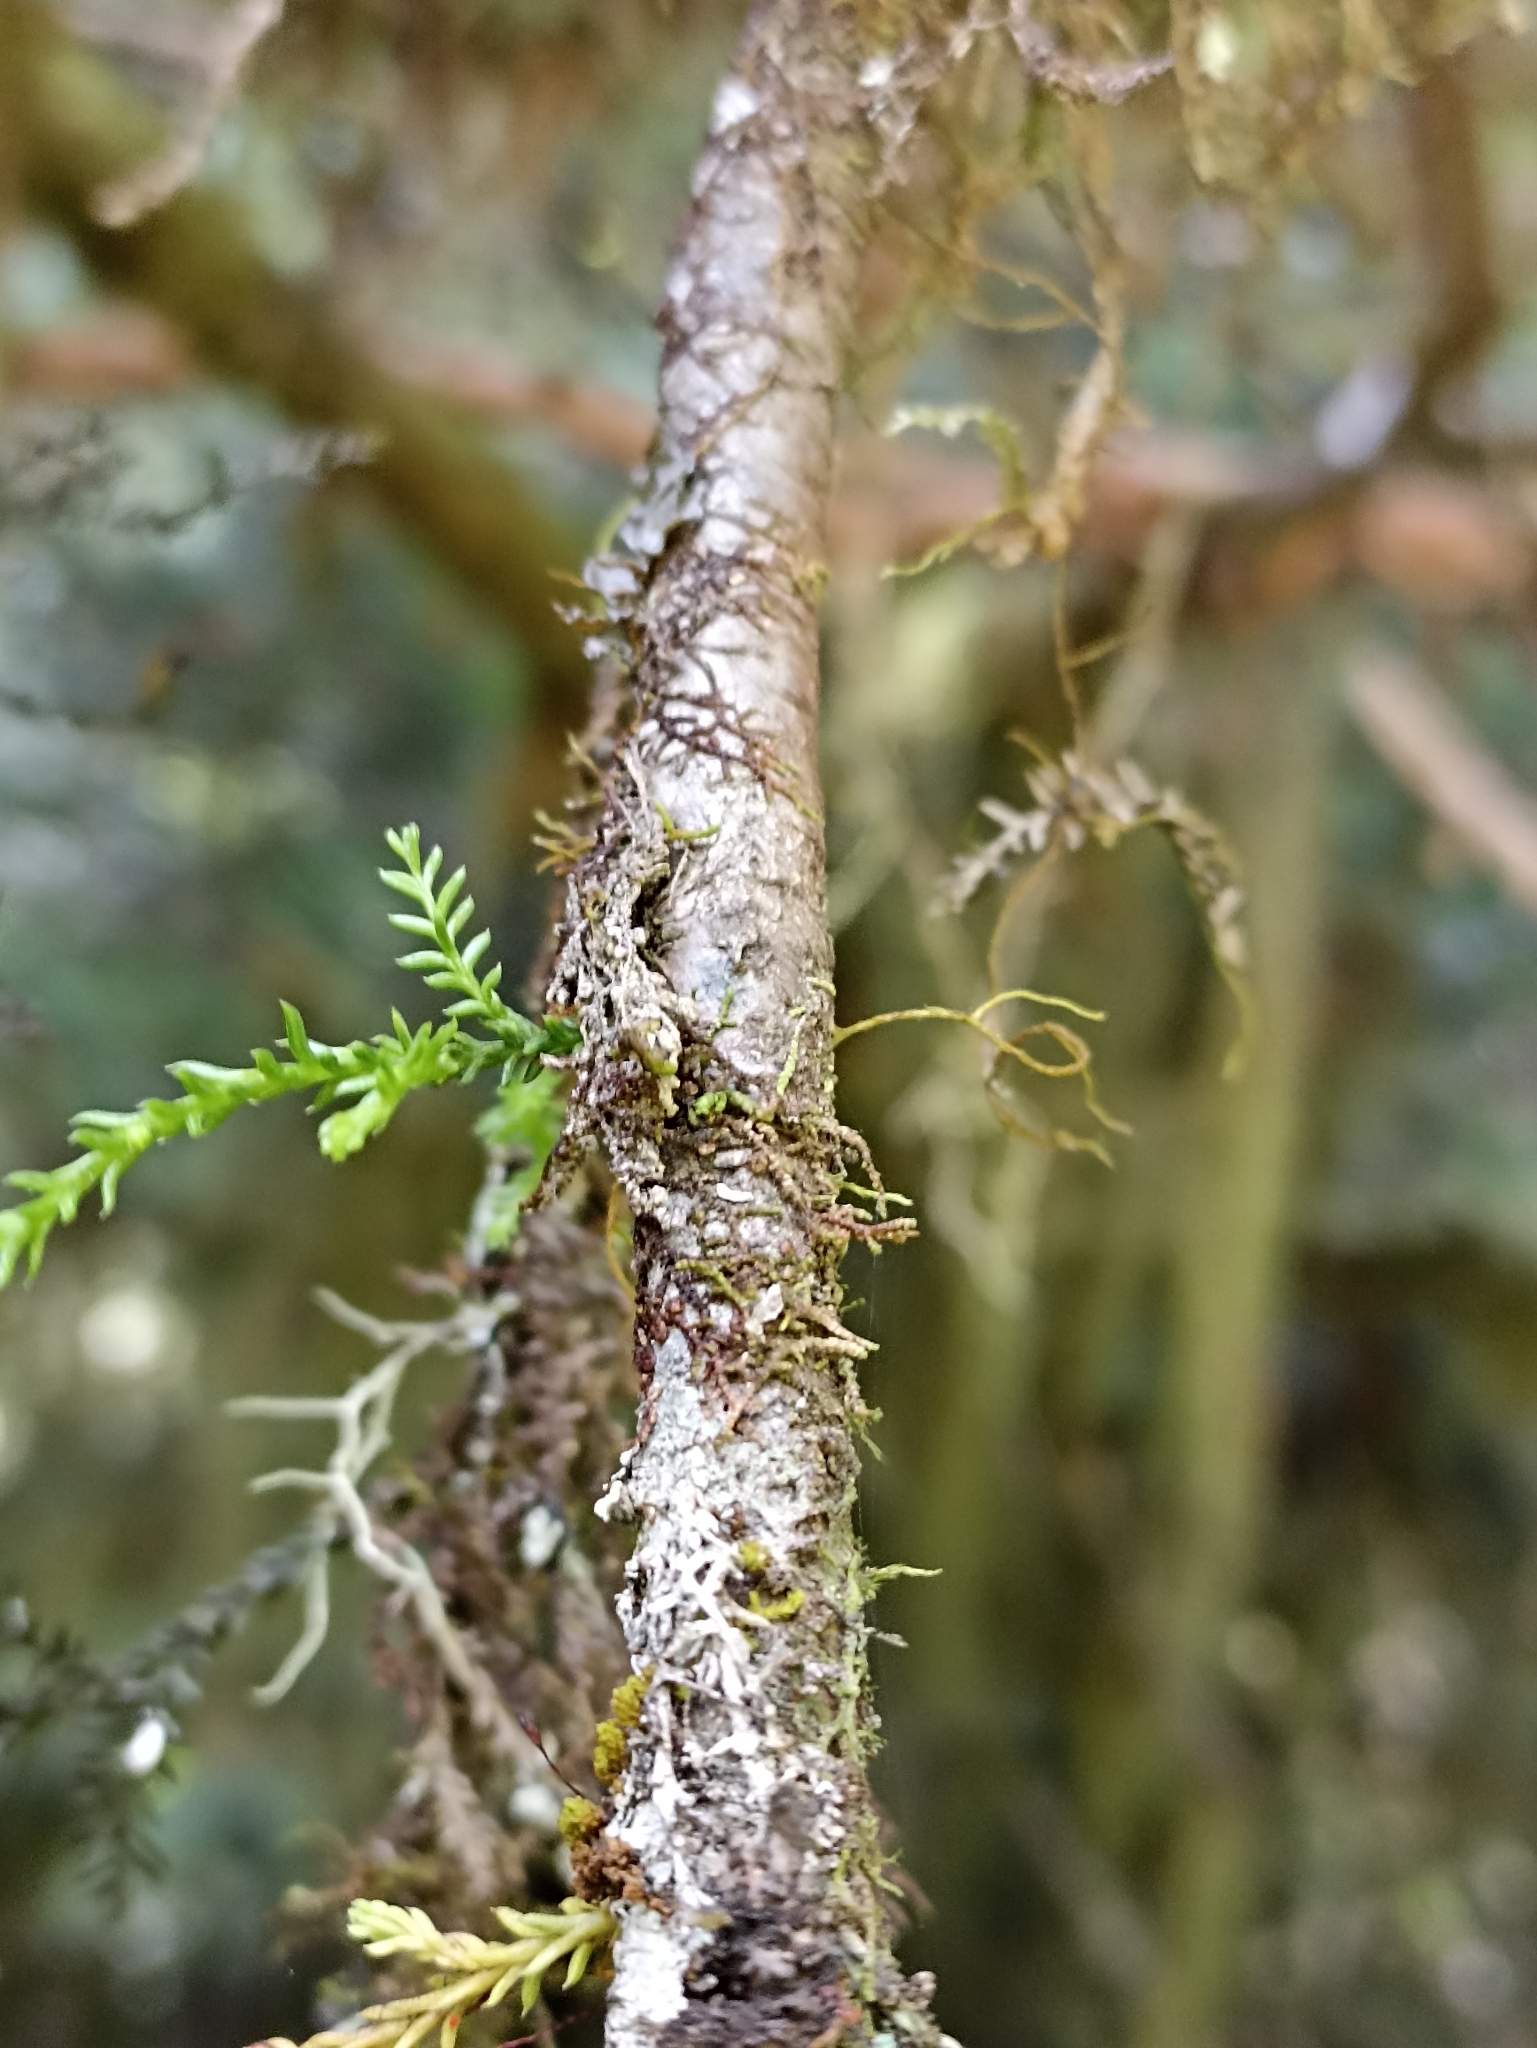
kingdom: Plantae
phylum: Tracheophyta
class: Pinopsida
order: Pinales
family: Podocarpaceae
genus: Dacrycarpus
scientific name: Dacrycarpus dacrydioides
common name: White pine
